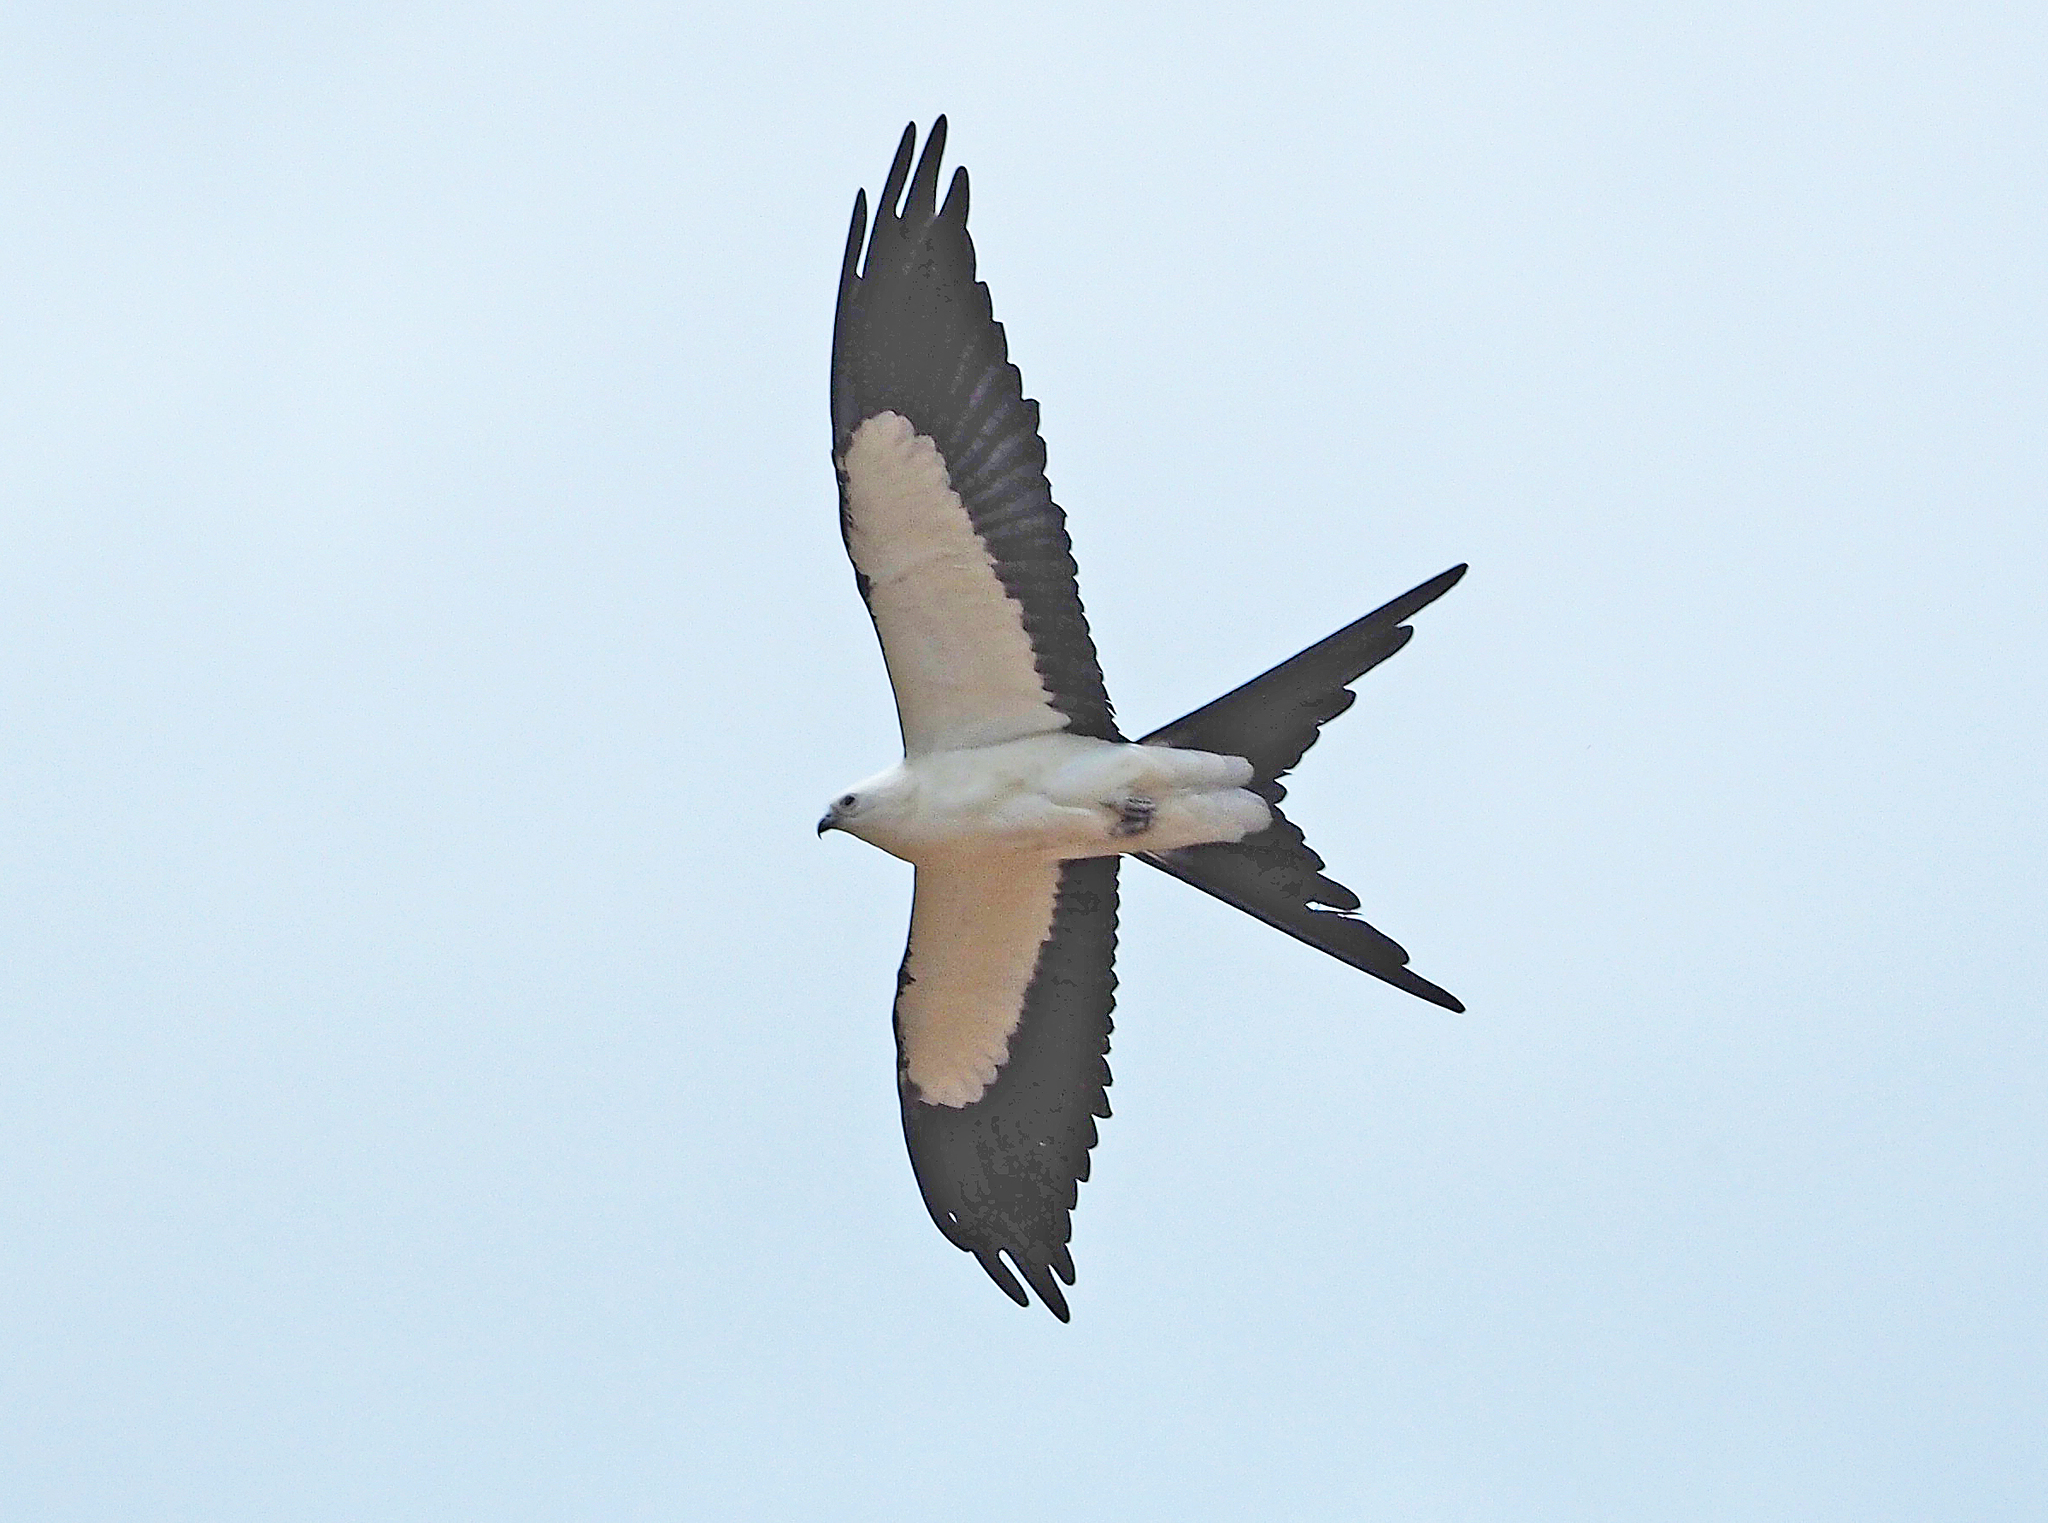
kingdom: Animalia
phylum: Chordata
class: Aves
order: Accipitriformes
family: Accipitridae
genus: Elanoides
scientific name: Elanoides forficatus
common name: Swallow-tailed kite
